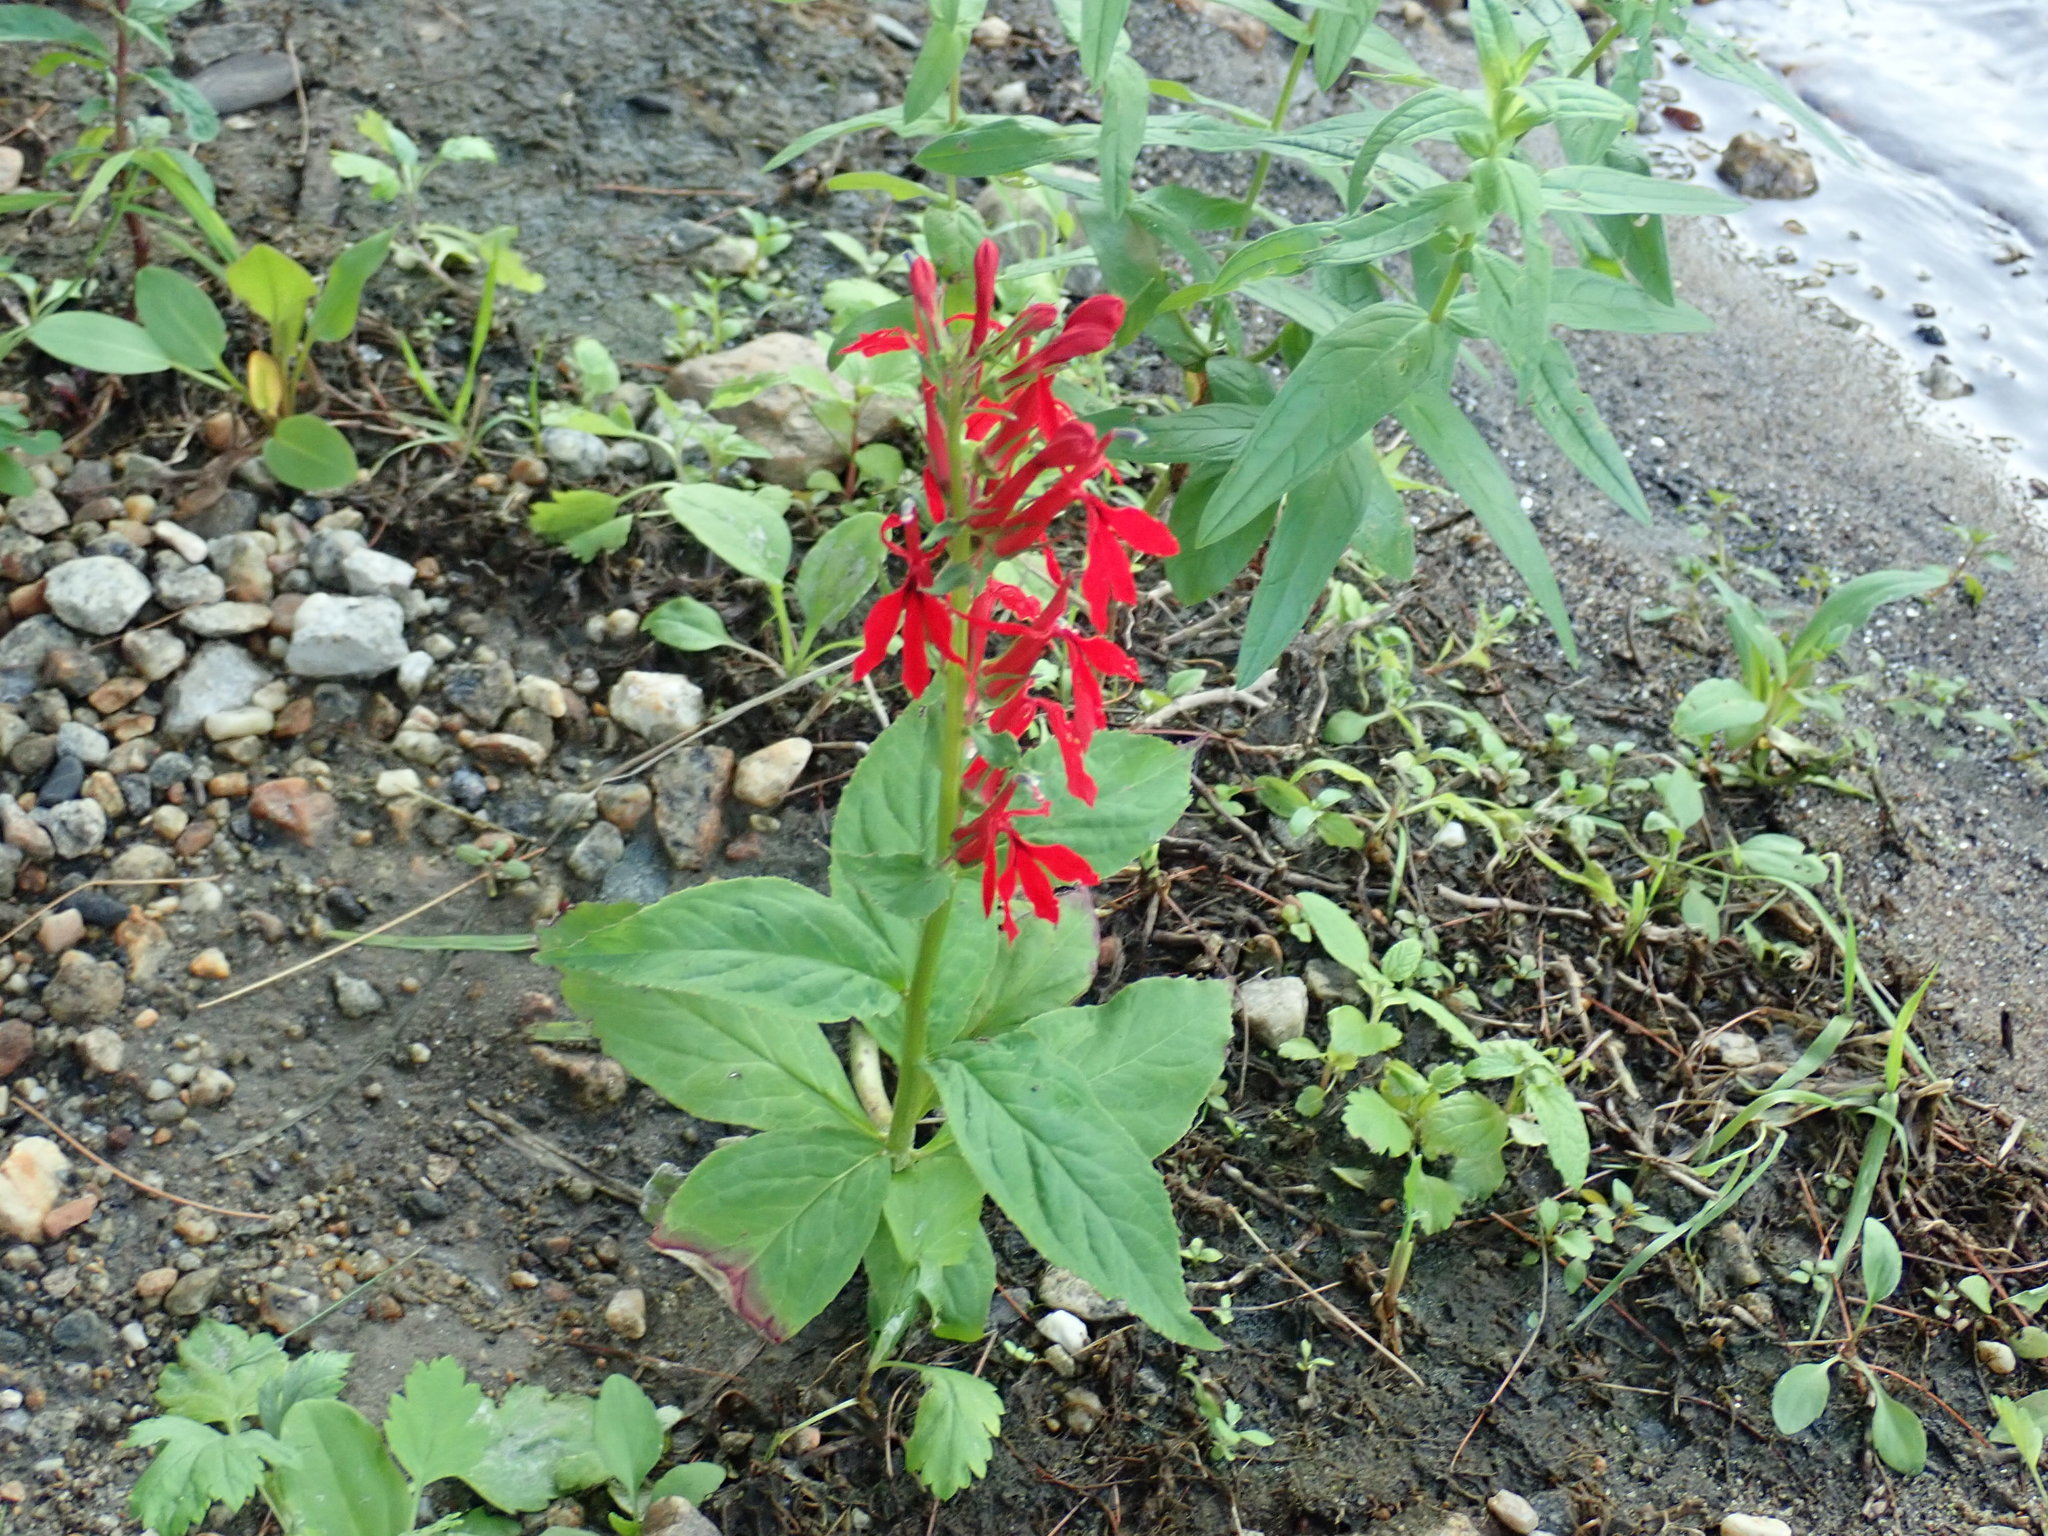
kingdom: Plantae
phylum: Tracheophyta
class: Magnoliopsida
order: Asterales
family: Campanulaceae
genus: Lobelia
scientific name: Lobelia cardinalis
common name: Cardinal flower
